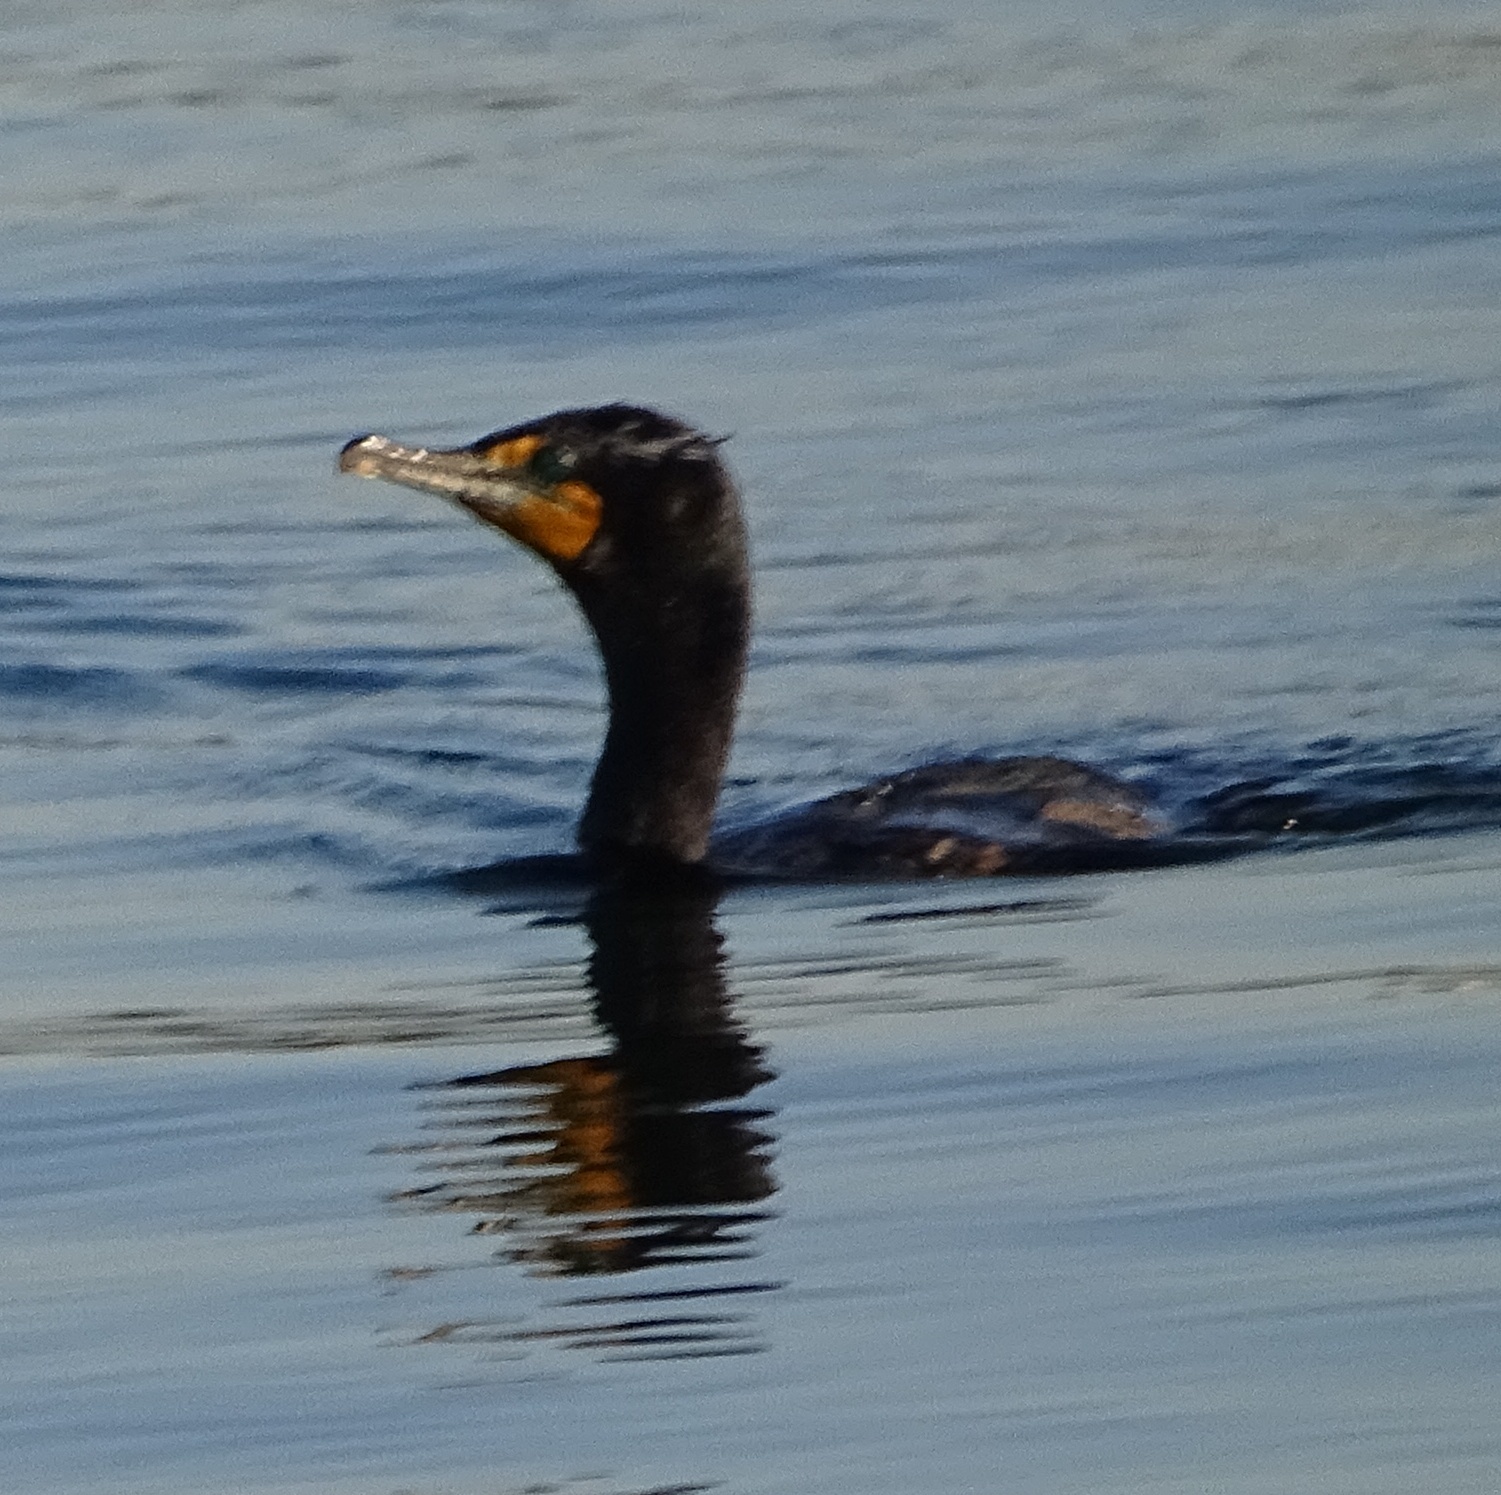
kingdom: Animalia
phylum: Chordata
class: Aves
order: Suliformes
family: Phalacrocoracidae
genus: Phalacrocorax
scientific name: Phalacrocorax auritus
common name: Double-crested cormorant
